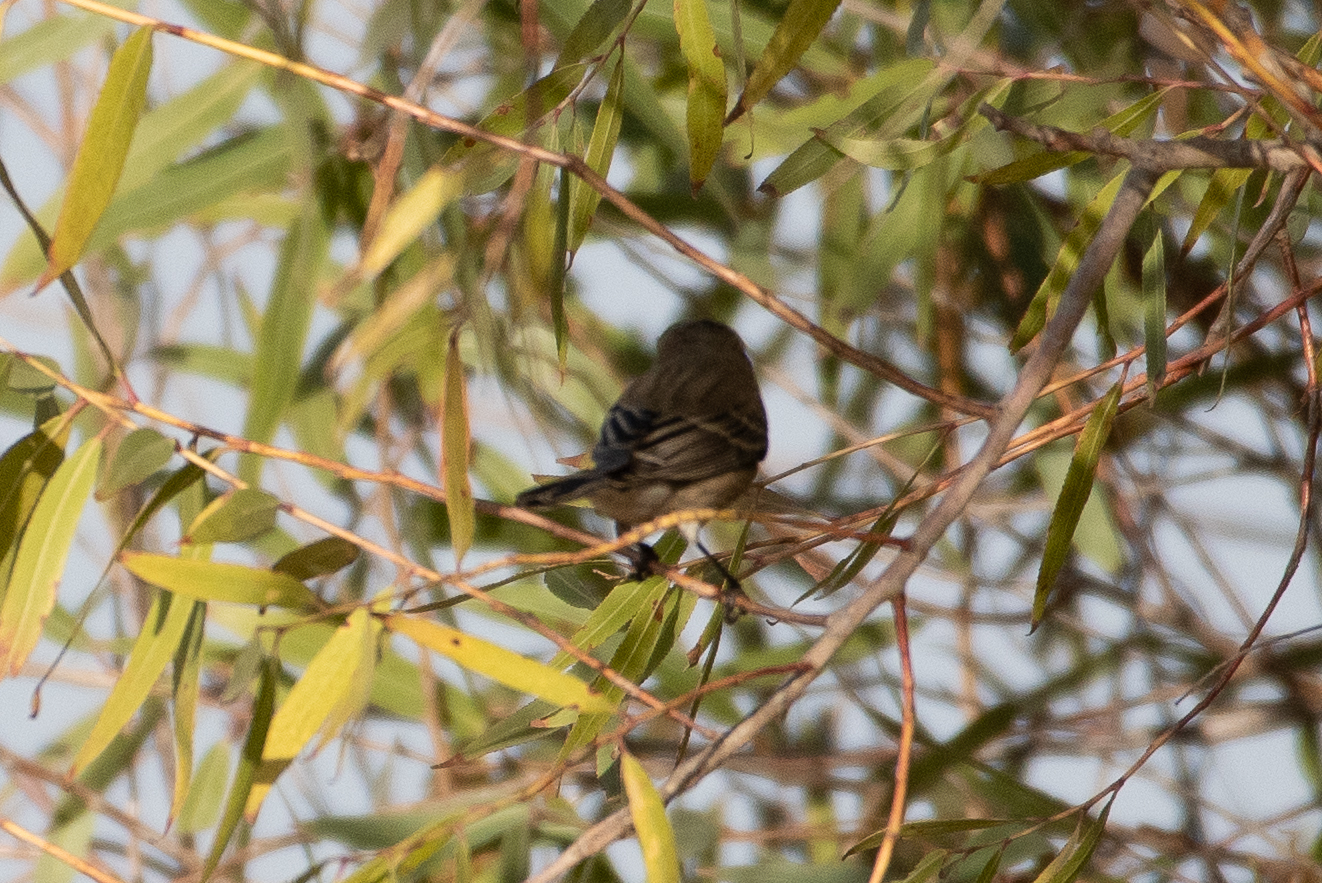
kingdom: Animalia
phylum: Chordata
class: Aves
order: Passeriformes
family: Parulidae
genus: Setophaga
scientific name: Setophaga coronata
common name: Myrtle warbler
